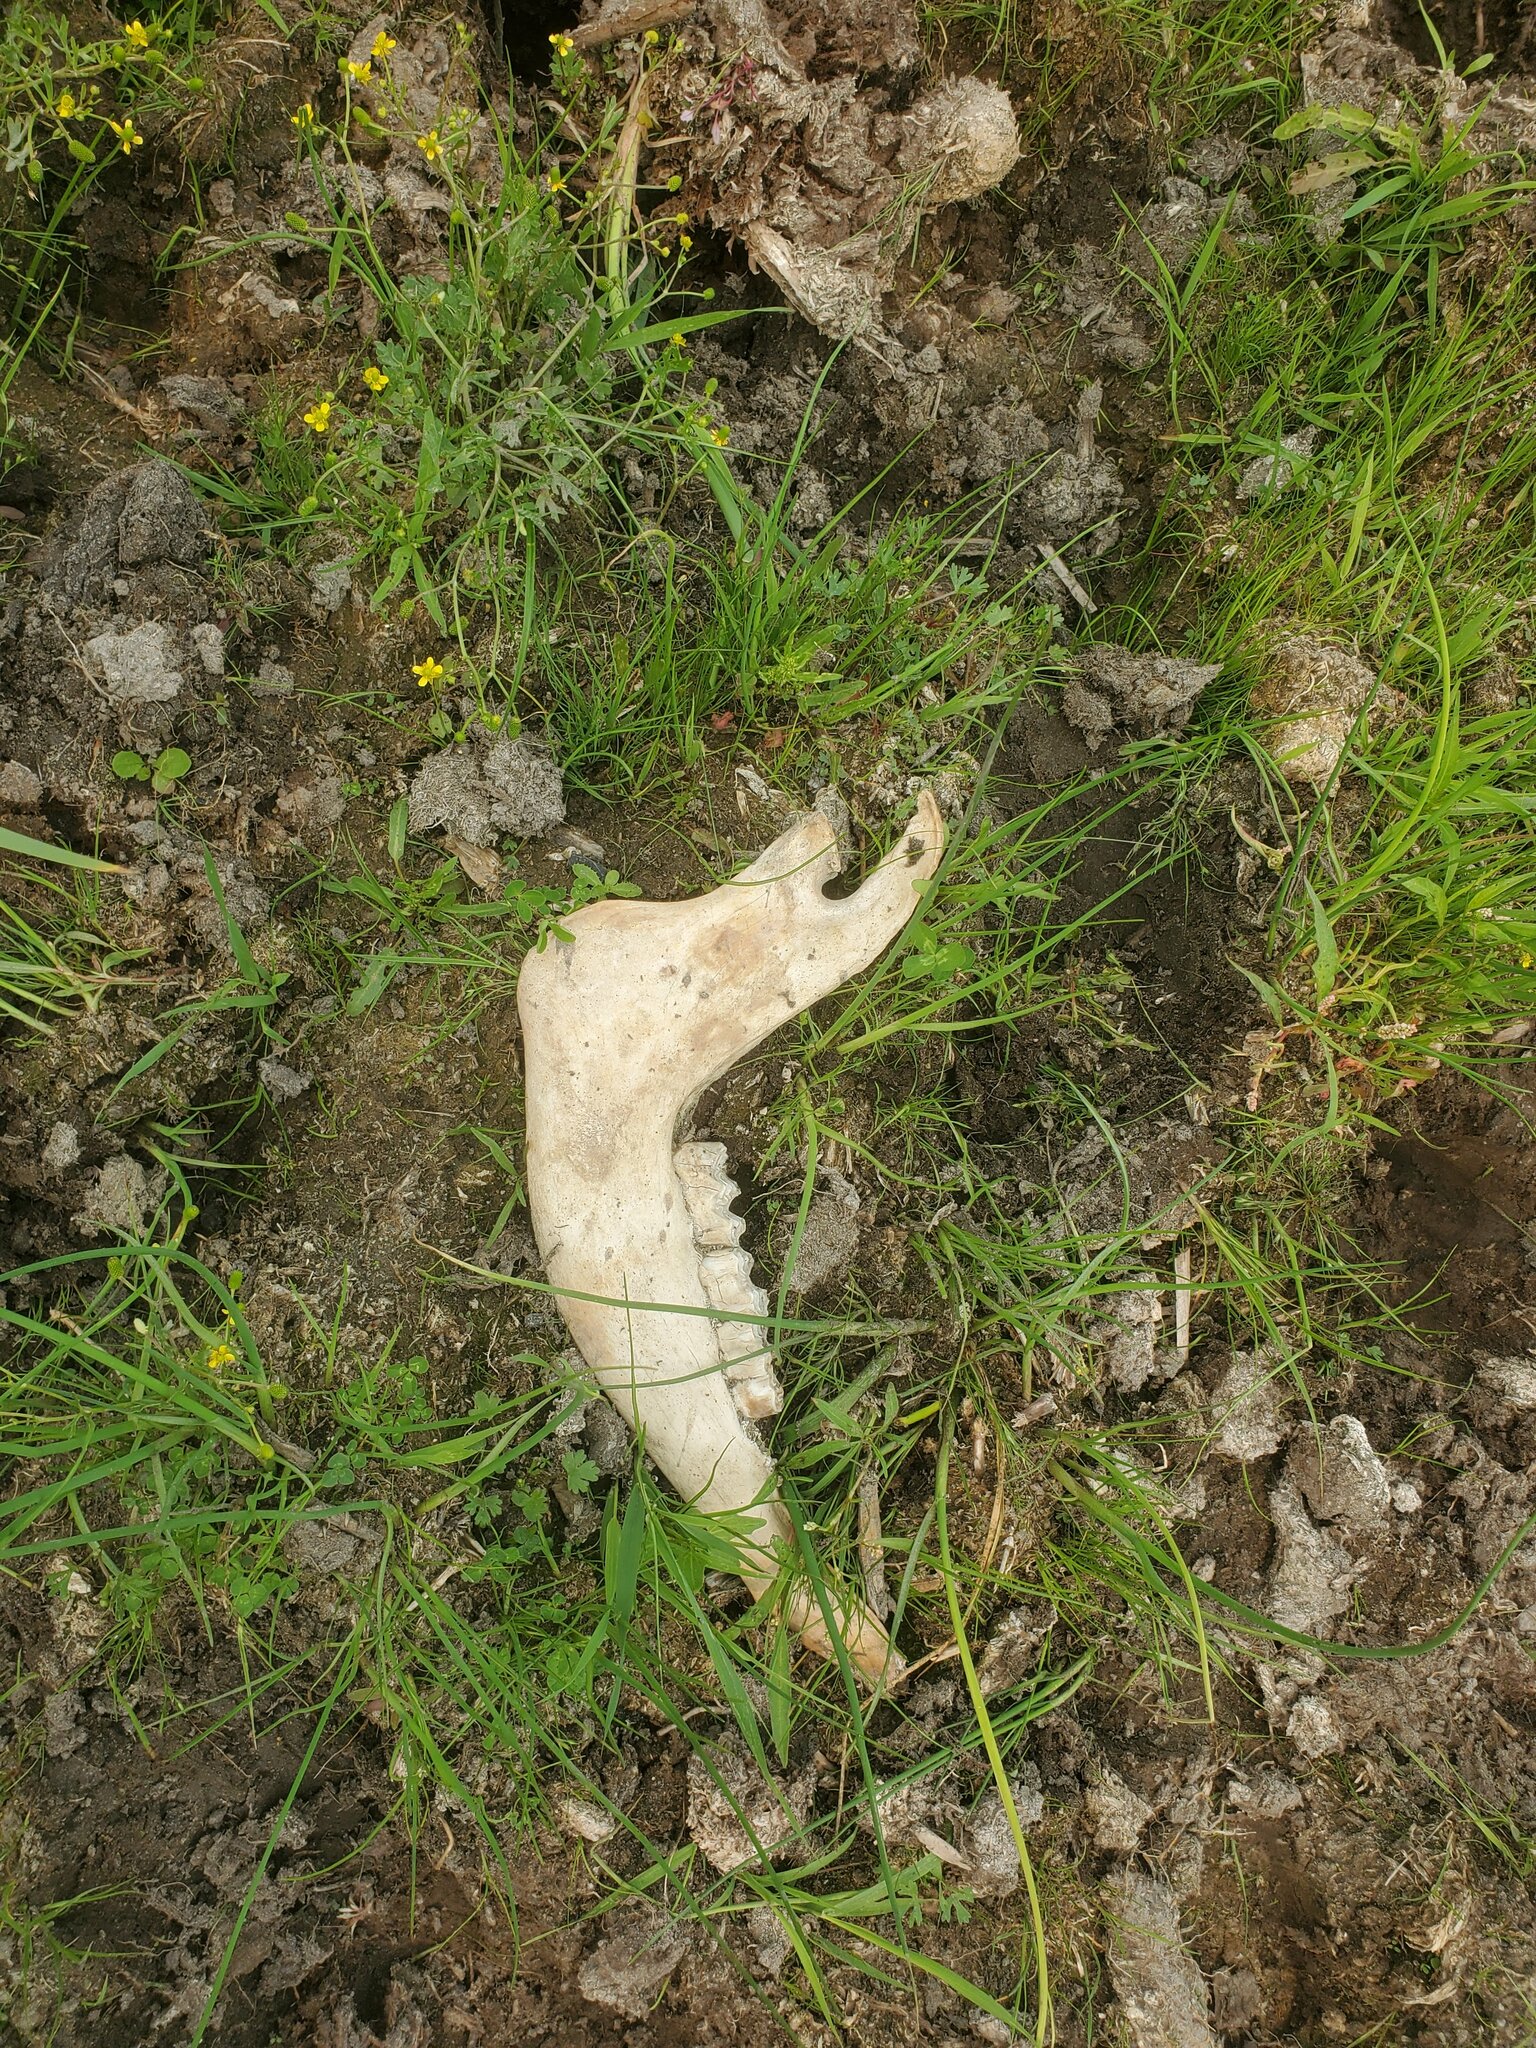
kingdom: Animalia
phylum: Chordata
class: Mammalia
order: Artiodactyla
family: Bovidae
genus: Bison
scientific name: Bison bison
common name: American bison
